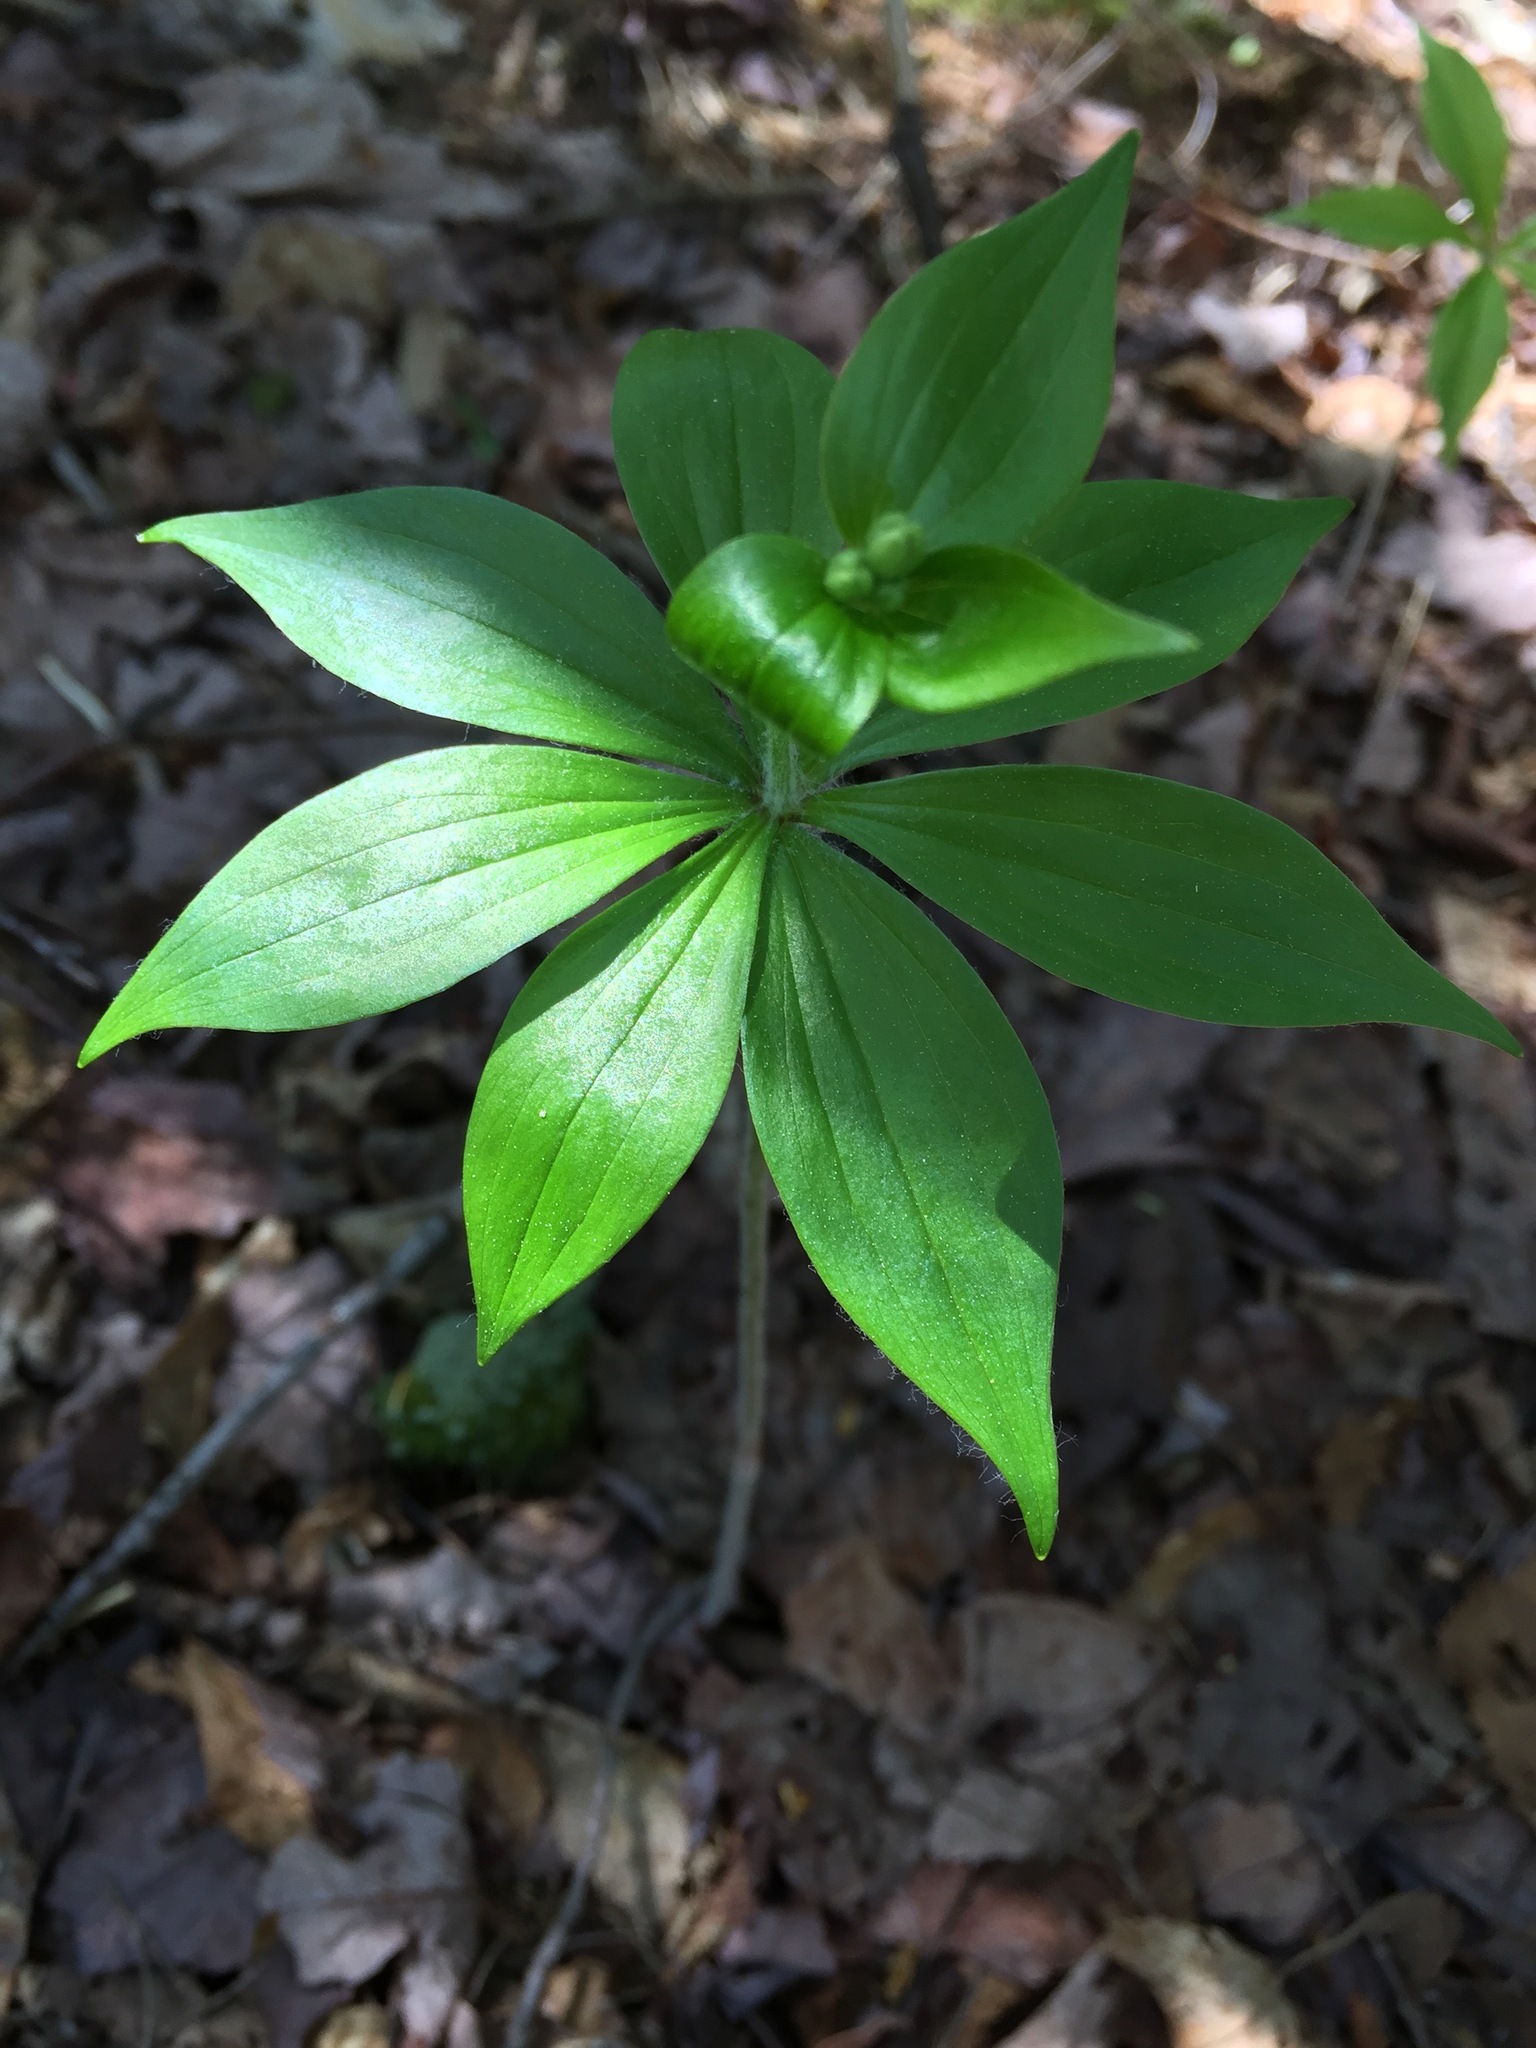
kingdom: Plantae
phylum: Tracheophyta
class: Liliopsida
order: Liliales
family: Liliaceae
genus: Medeola
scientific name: Medeola virginiana
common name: Indian cucumber-root
